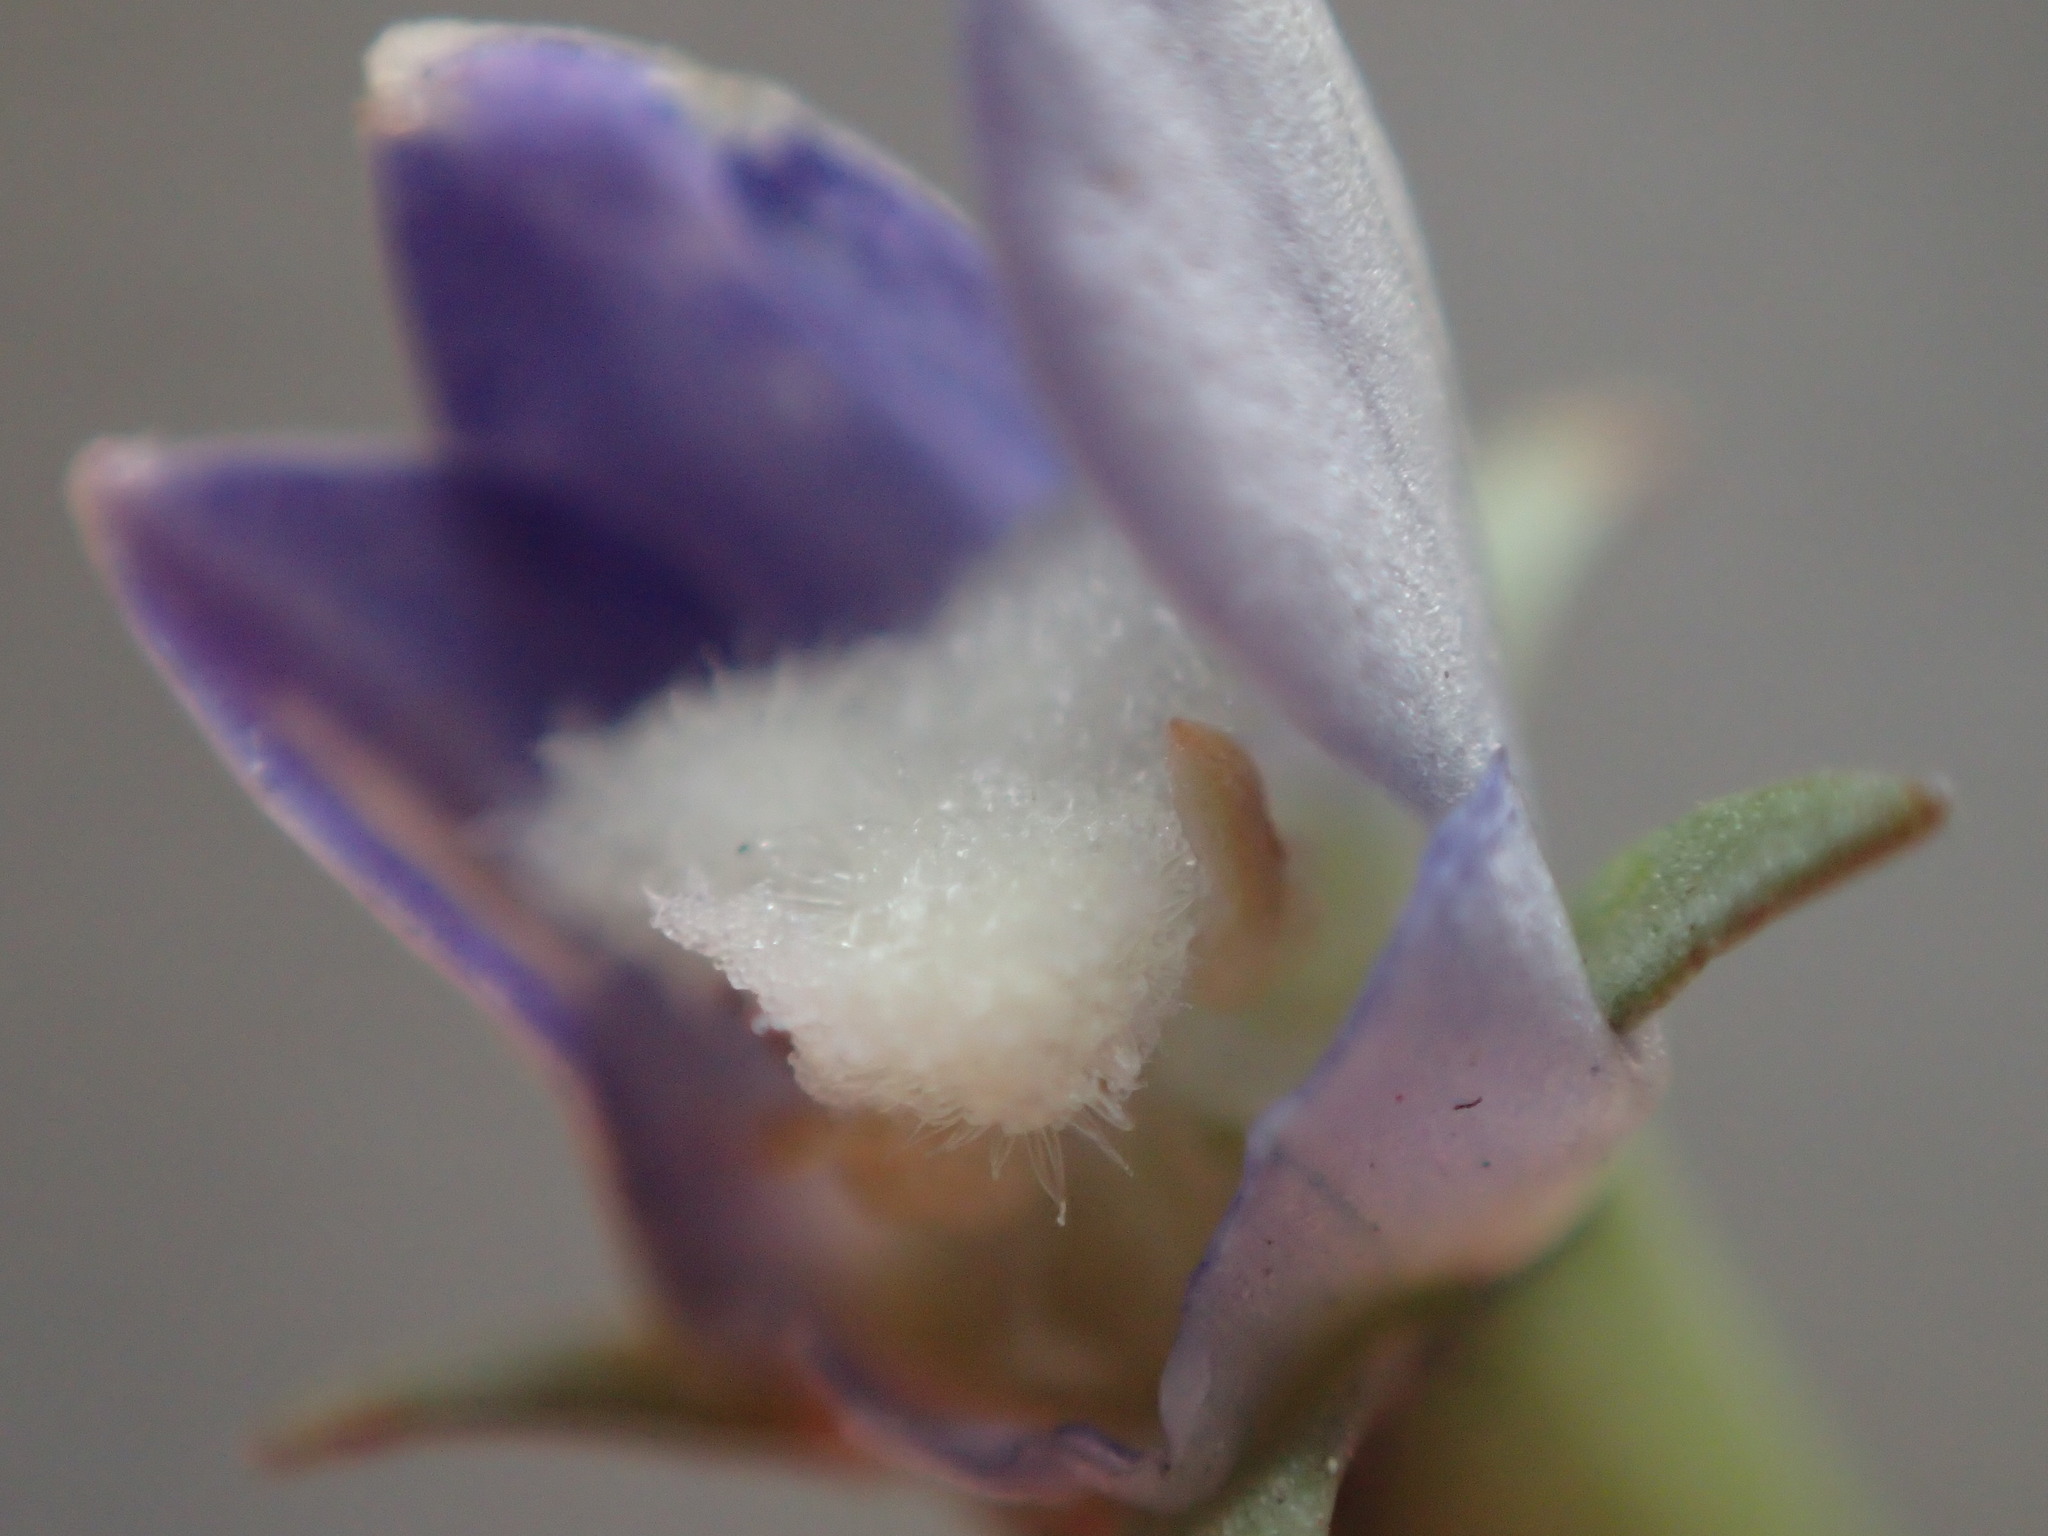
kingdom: Plantae
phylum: Tracheophyta
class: Magnoliopsida
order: Asterales
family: Campanulaceae
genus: Wahlenbergia
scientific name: Wahlenbergia marginata
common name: Southern rockbell
